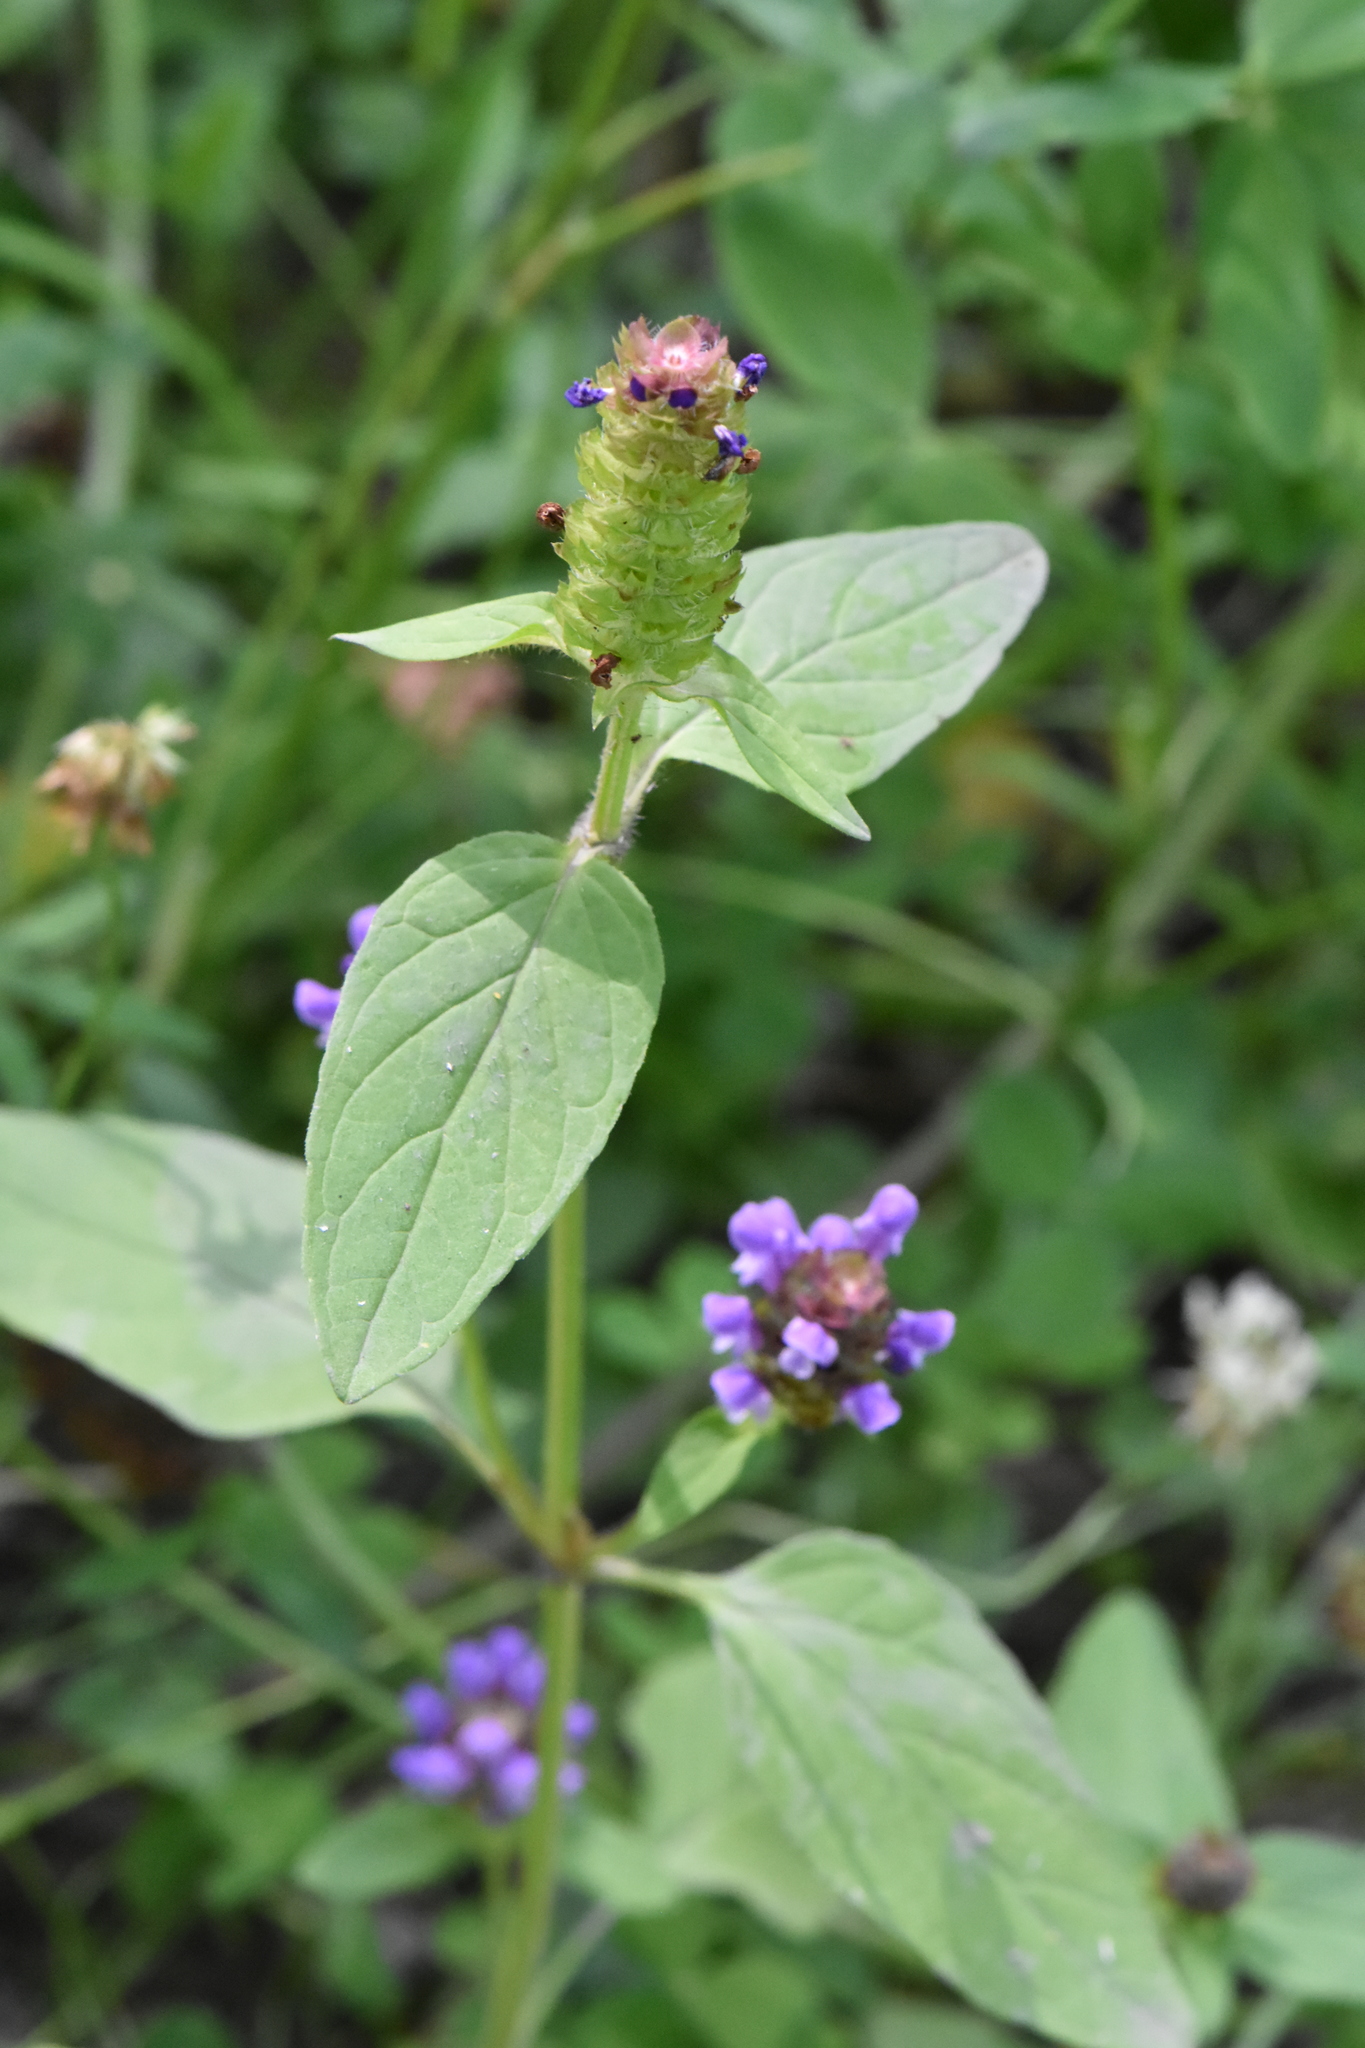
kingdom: Plantae
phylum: Tracheophyta
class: Magnoliopsida
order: Lamiales
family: Lamiaceae
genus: Prunella
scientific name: Prunella vulgaris
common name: Heal-all
